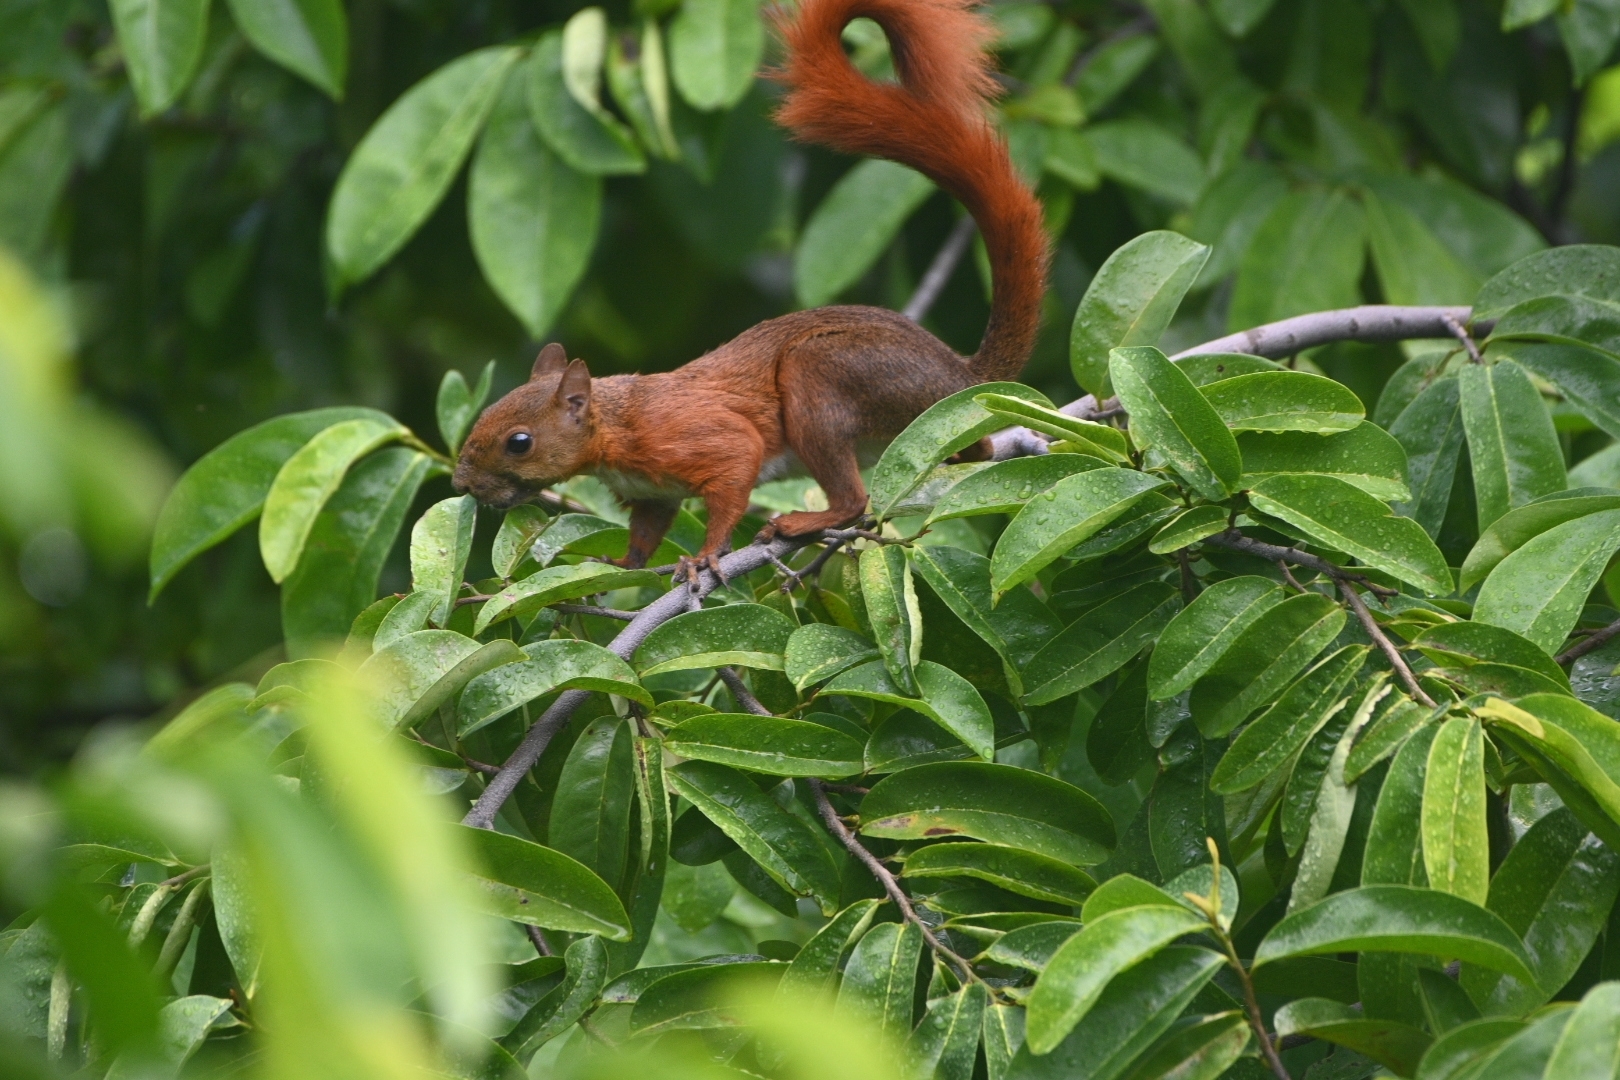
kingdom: Animalia
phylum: Chordata
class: Mammalia
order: Rodentia
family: Sciuridae
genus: Sciurus
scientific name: Sciurus granatensis
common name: Red-tailed squirrel
